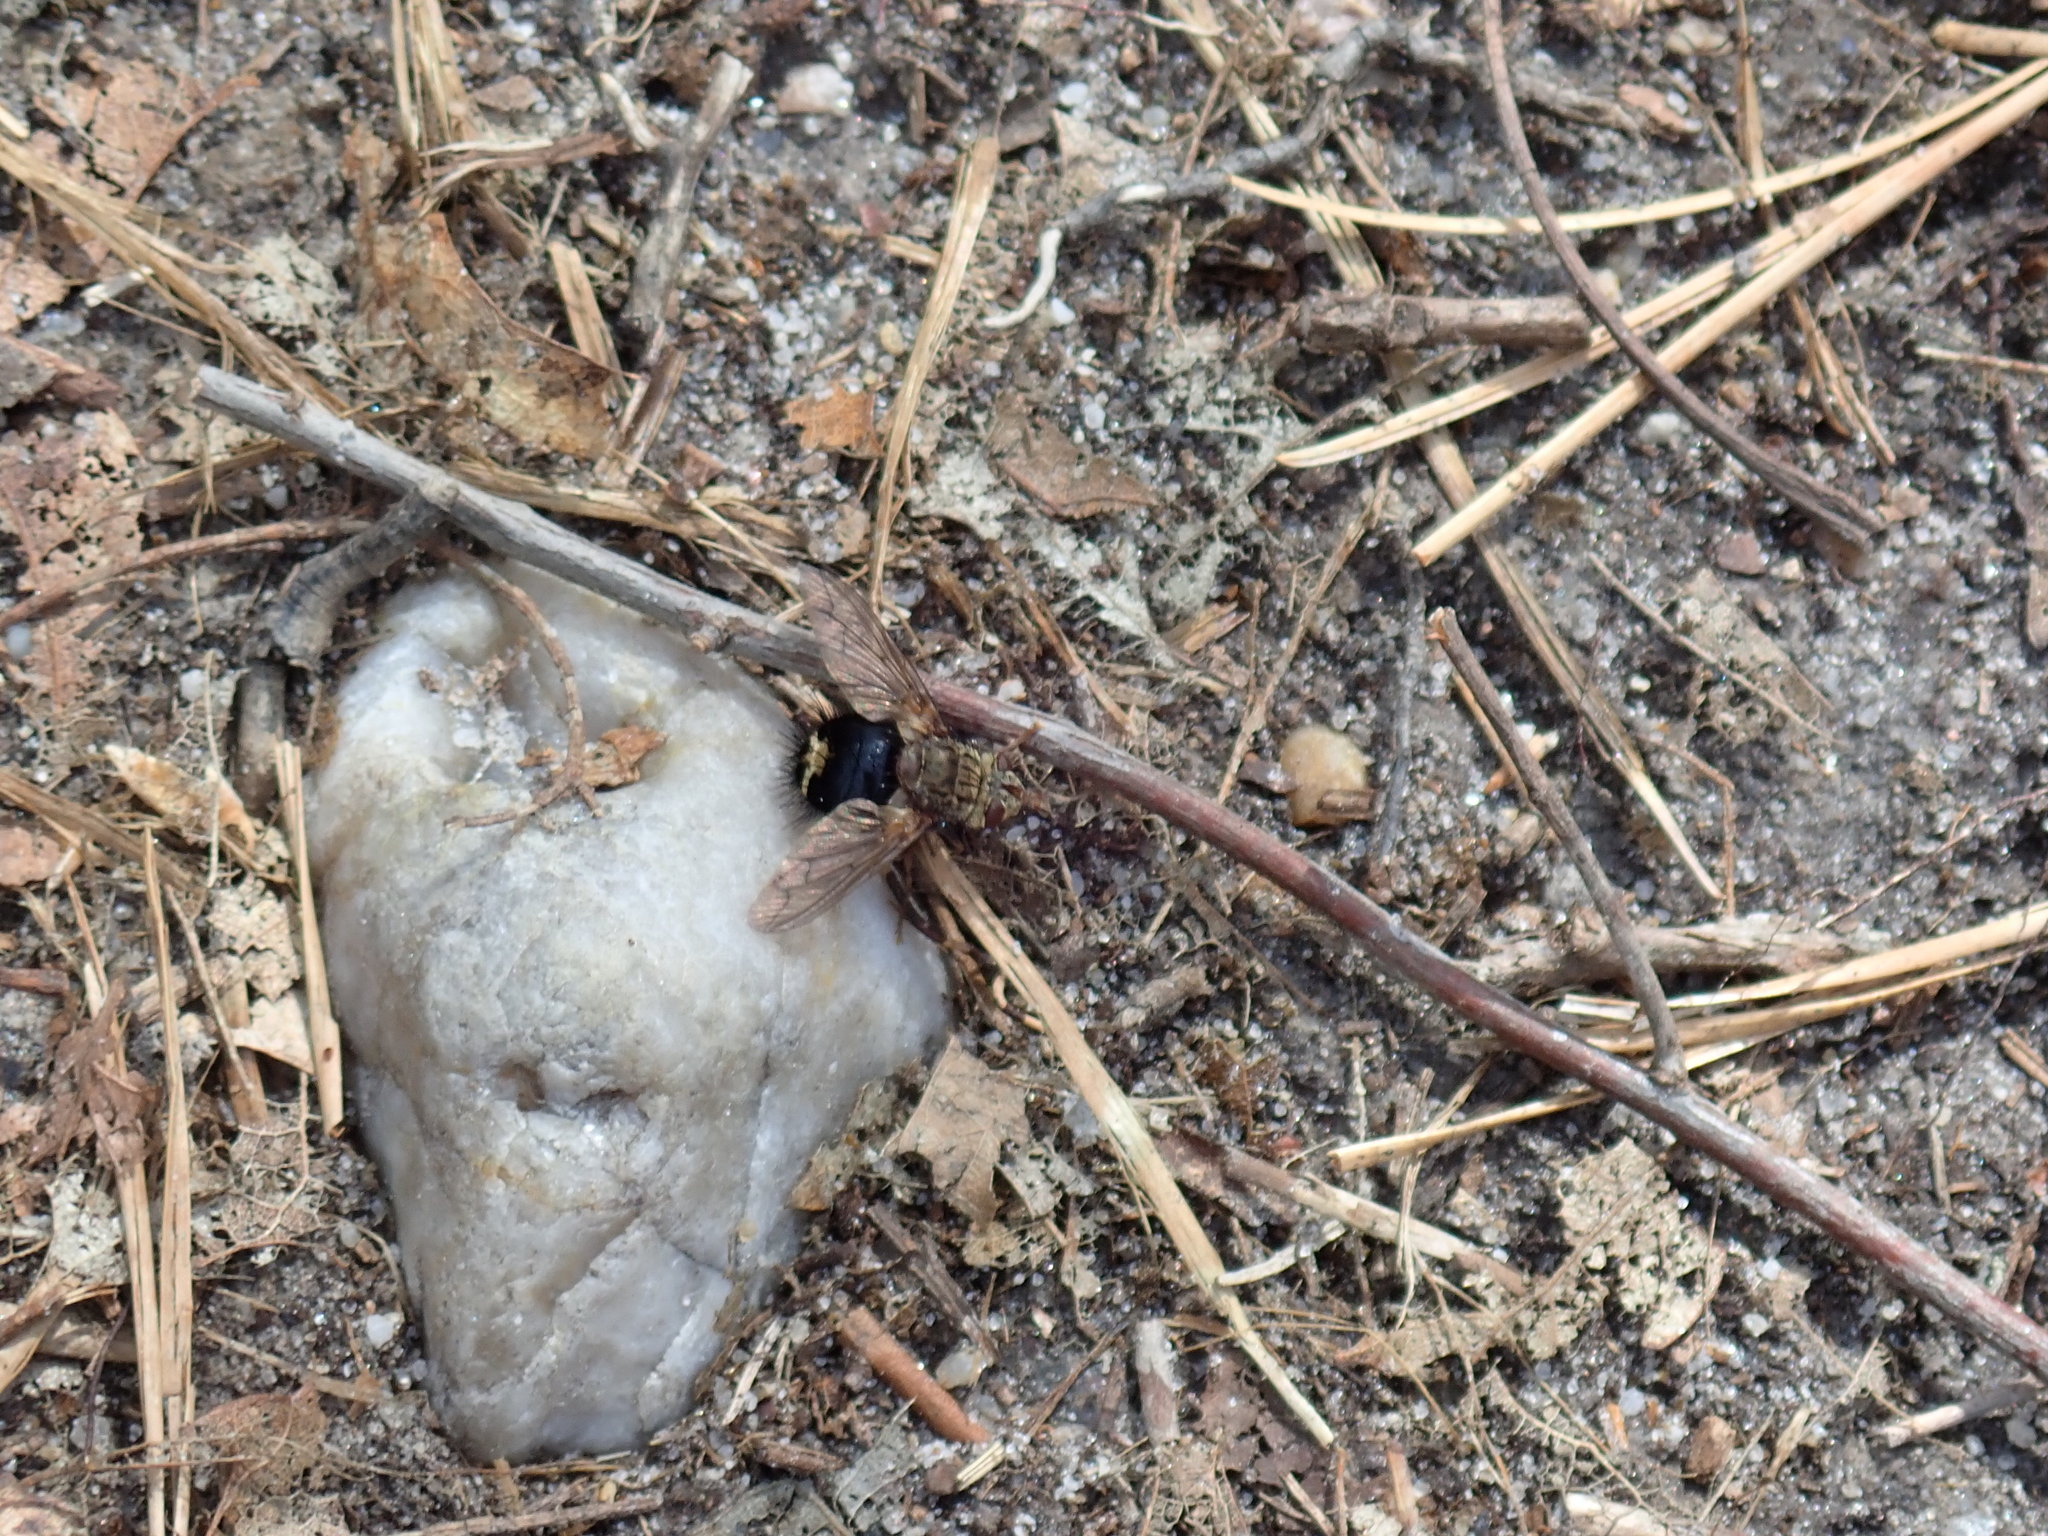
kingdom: Animalia
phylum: Arthropoda
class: Insecta
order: Diptera
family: Tachinidae
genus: Epalpus
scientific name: Epalpus signifer
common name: Early tachinid fly
